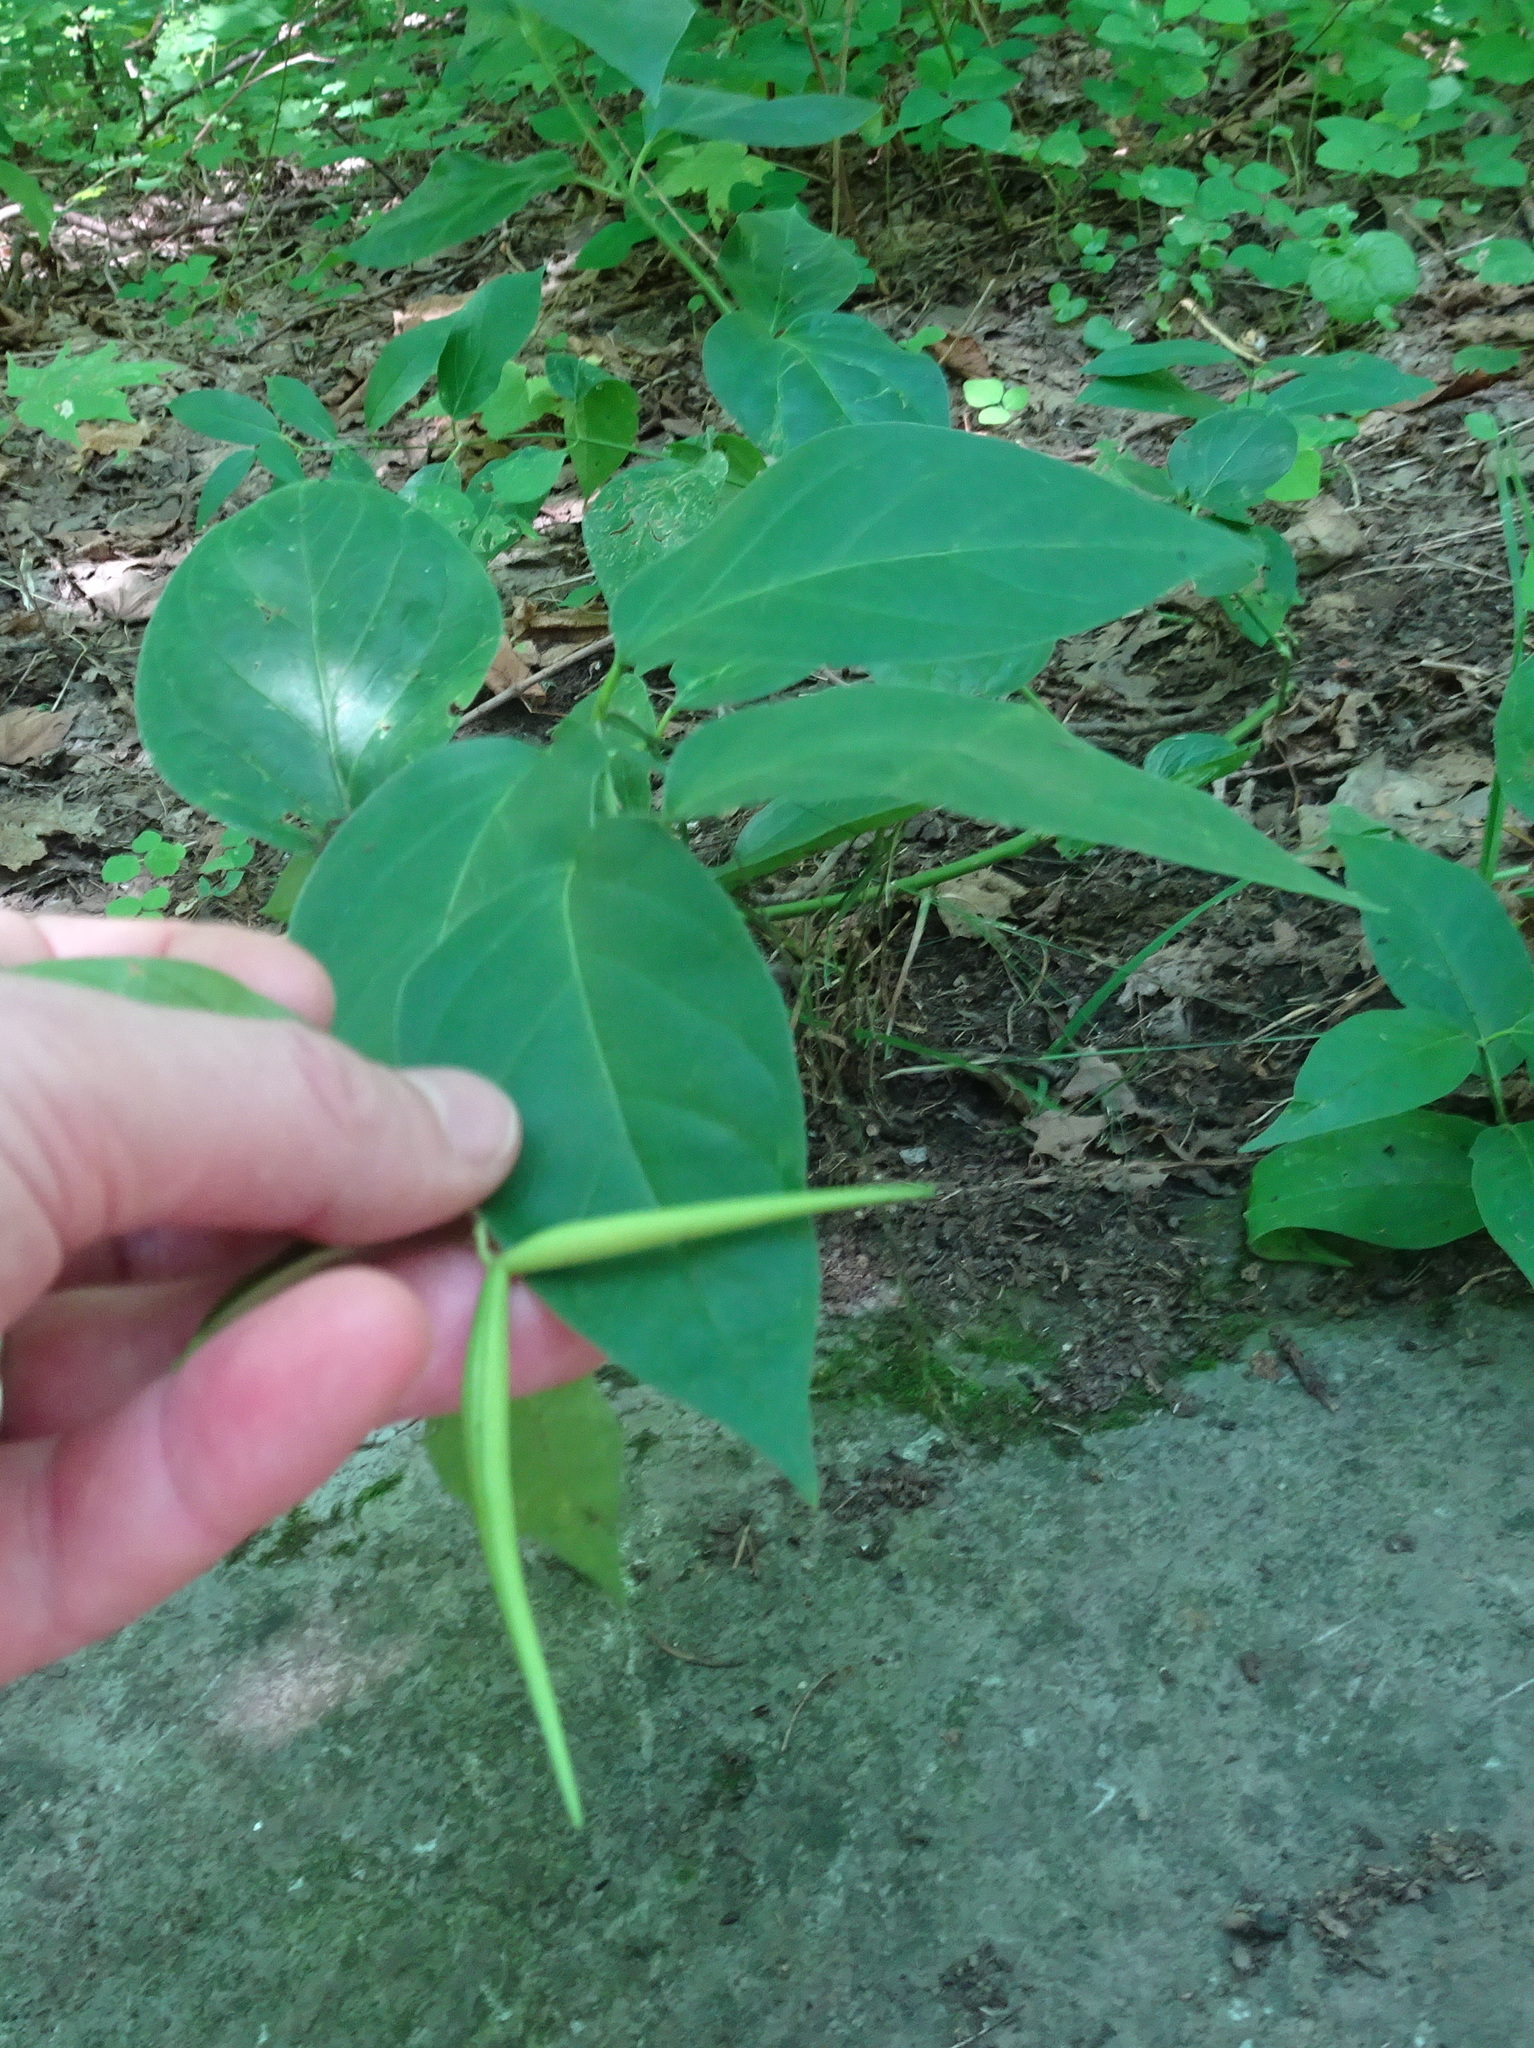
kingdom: Plantae
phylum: Tracheophyta
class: Magnoliopsida
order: Gentianales
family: Apocynaceae
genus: Vincetoxicum
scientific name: Vincetoxicum rossicum
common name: Dog-strangling vine
